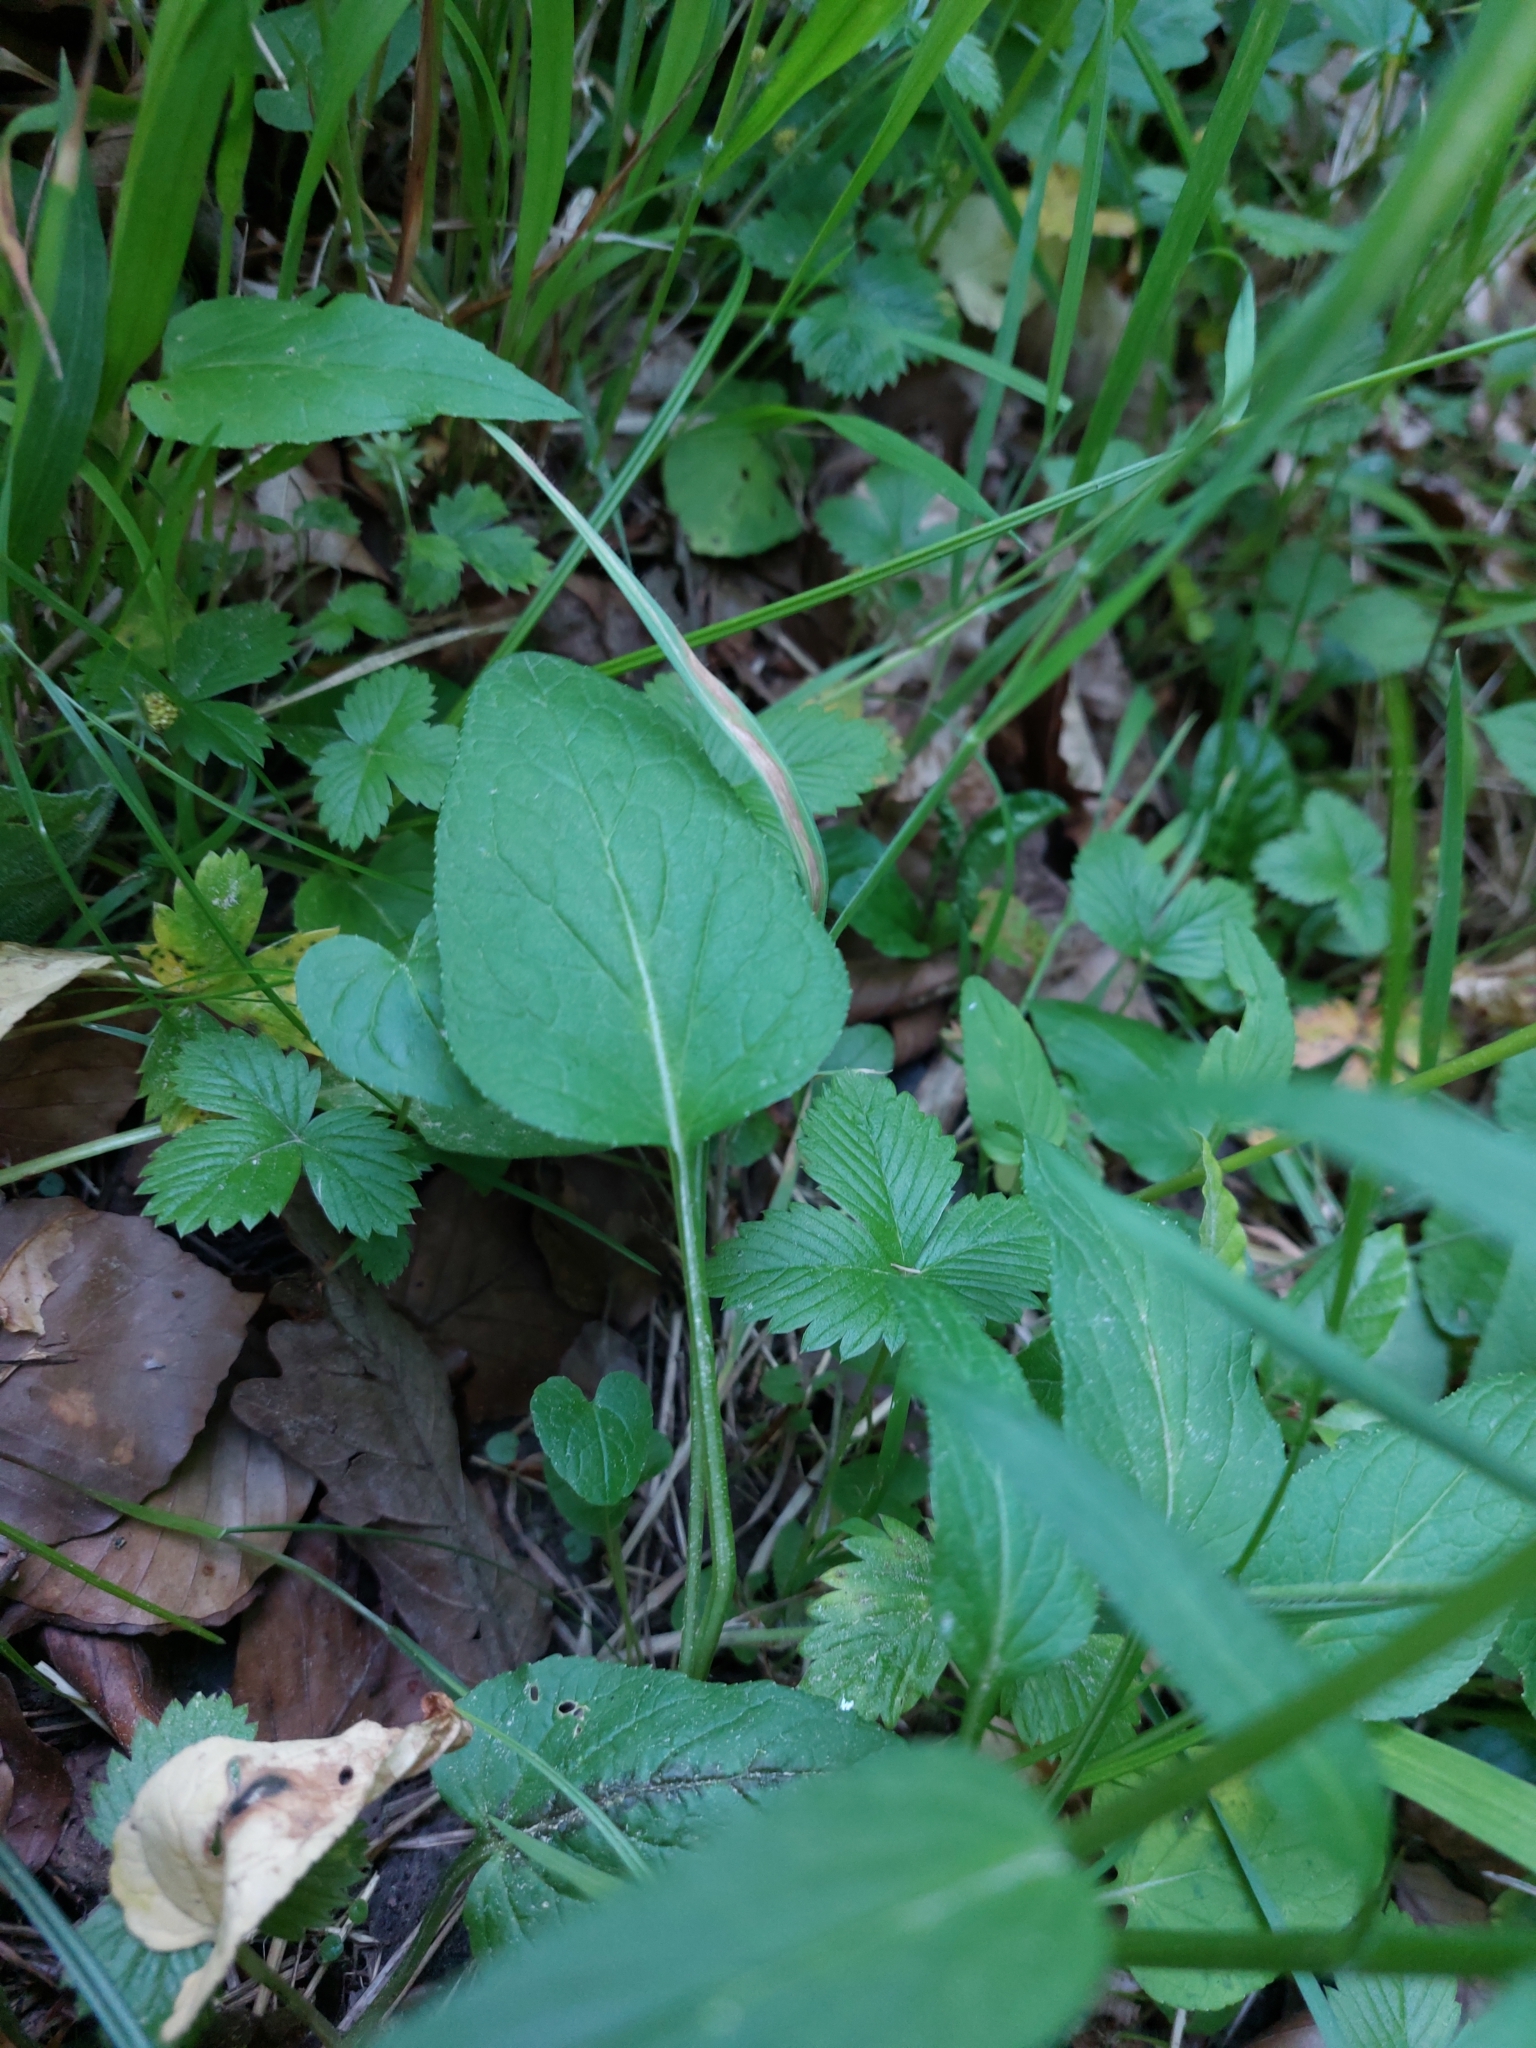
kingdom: Plantae
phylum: Tracheophyta
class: Magnoliopsida
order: Asterales
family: Campanulaceae
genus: Phyteuma
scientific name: Phyteuma nigrum
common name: Black rampion
